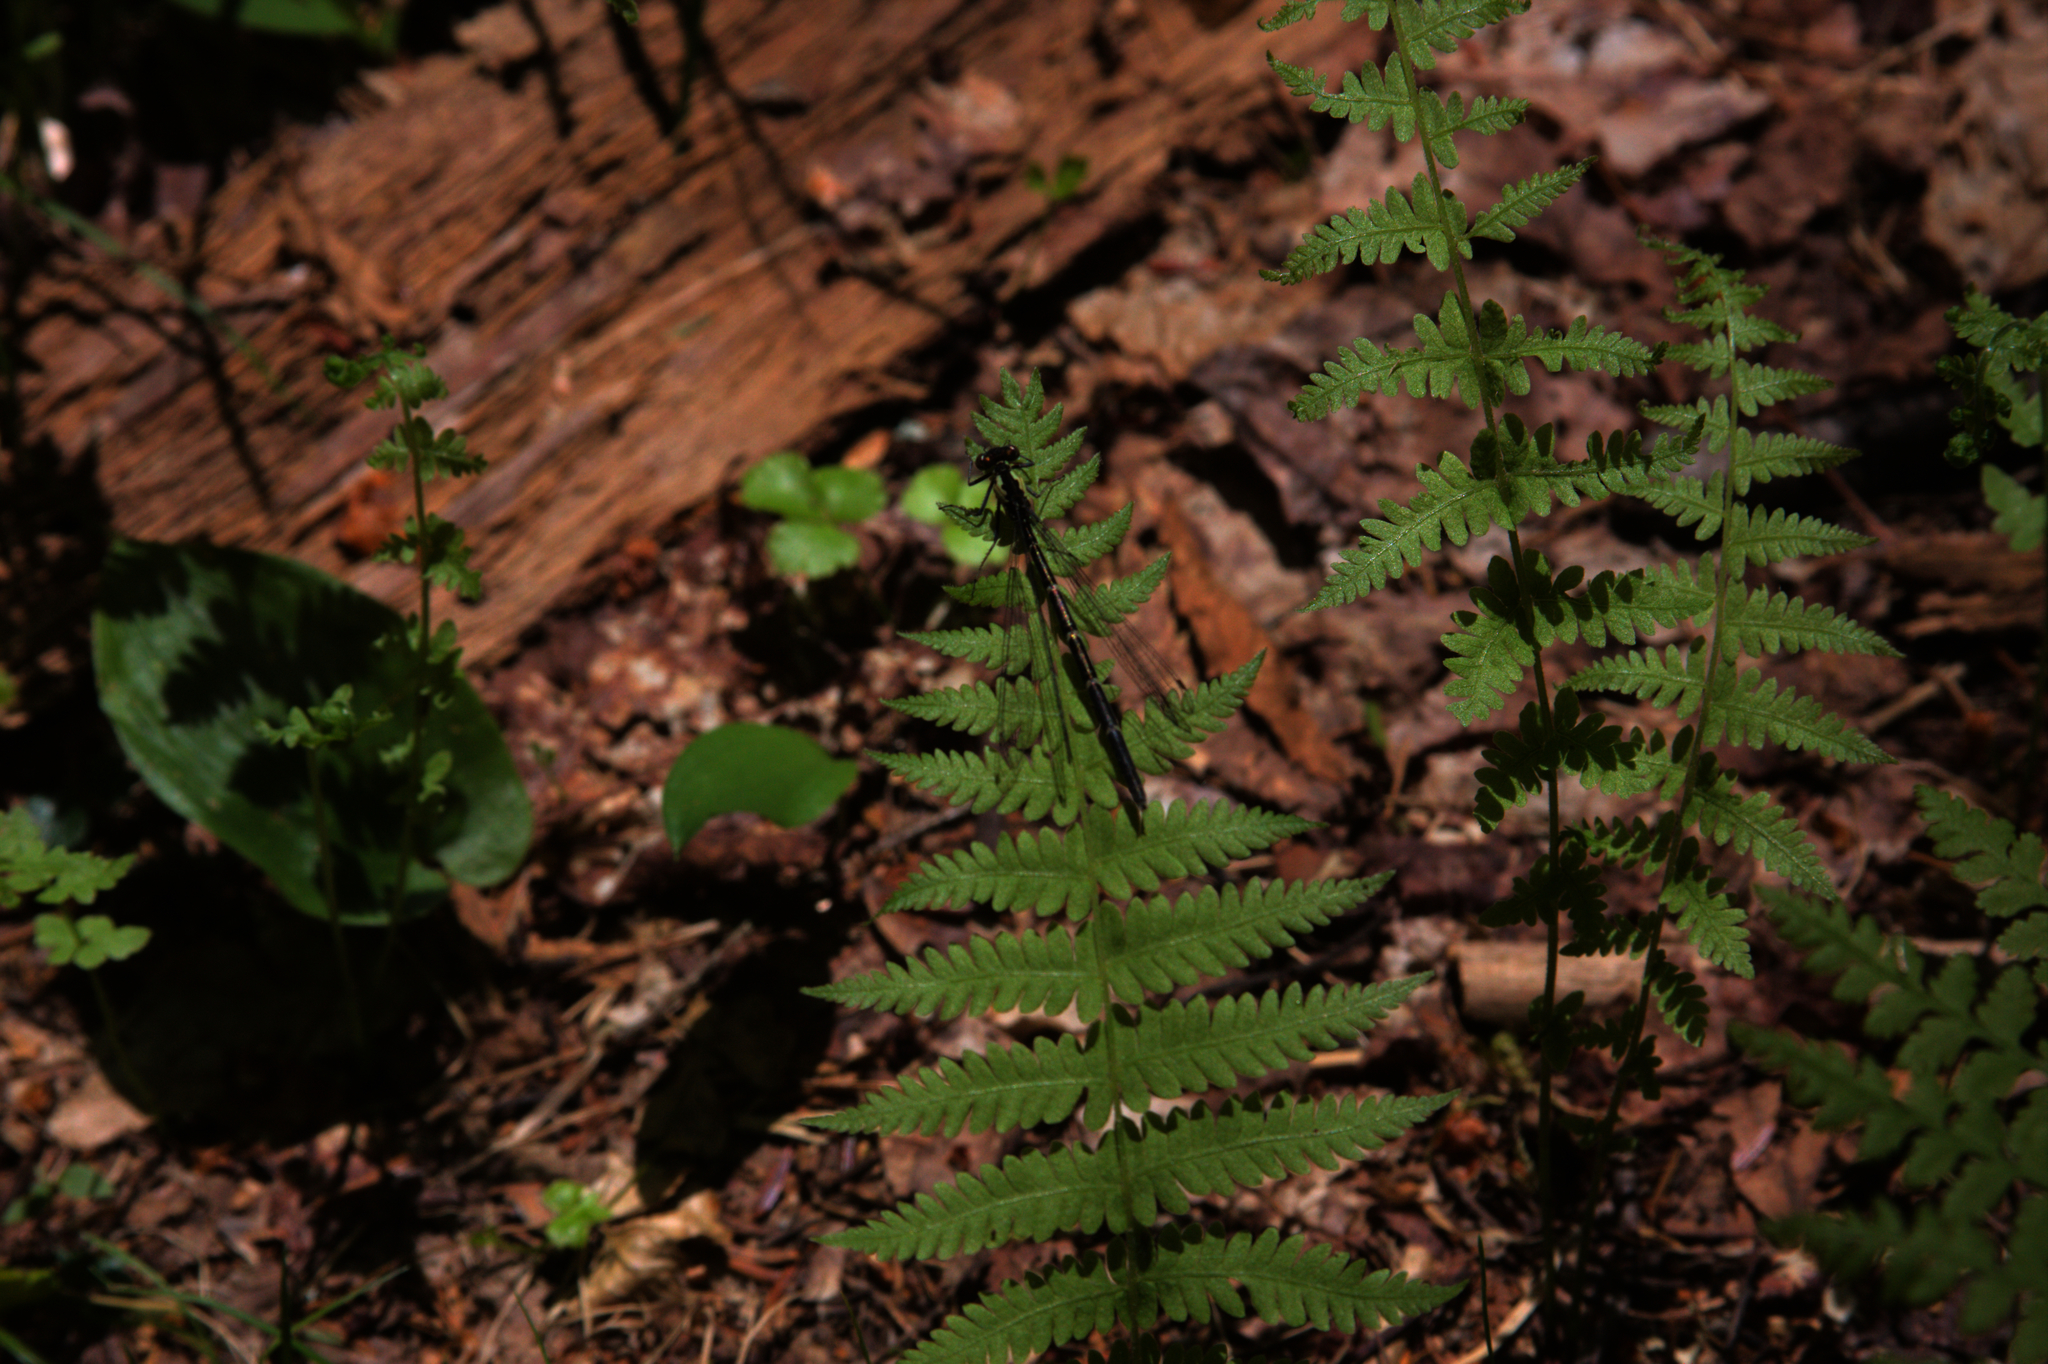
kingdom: Animalia
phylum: Arthropoda
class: Insecta
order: Odonata
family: Coenagrionidae
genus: Chromagrion
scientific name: Chromagrion conditum
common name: Aurora damsel
